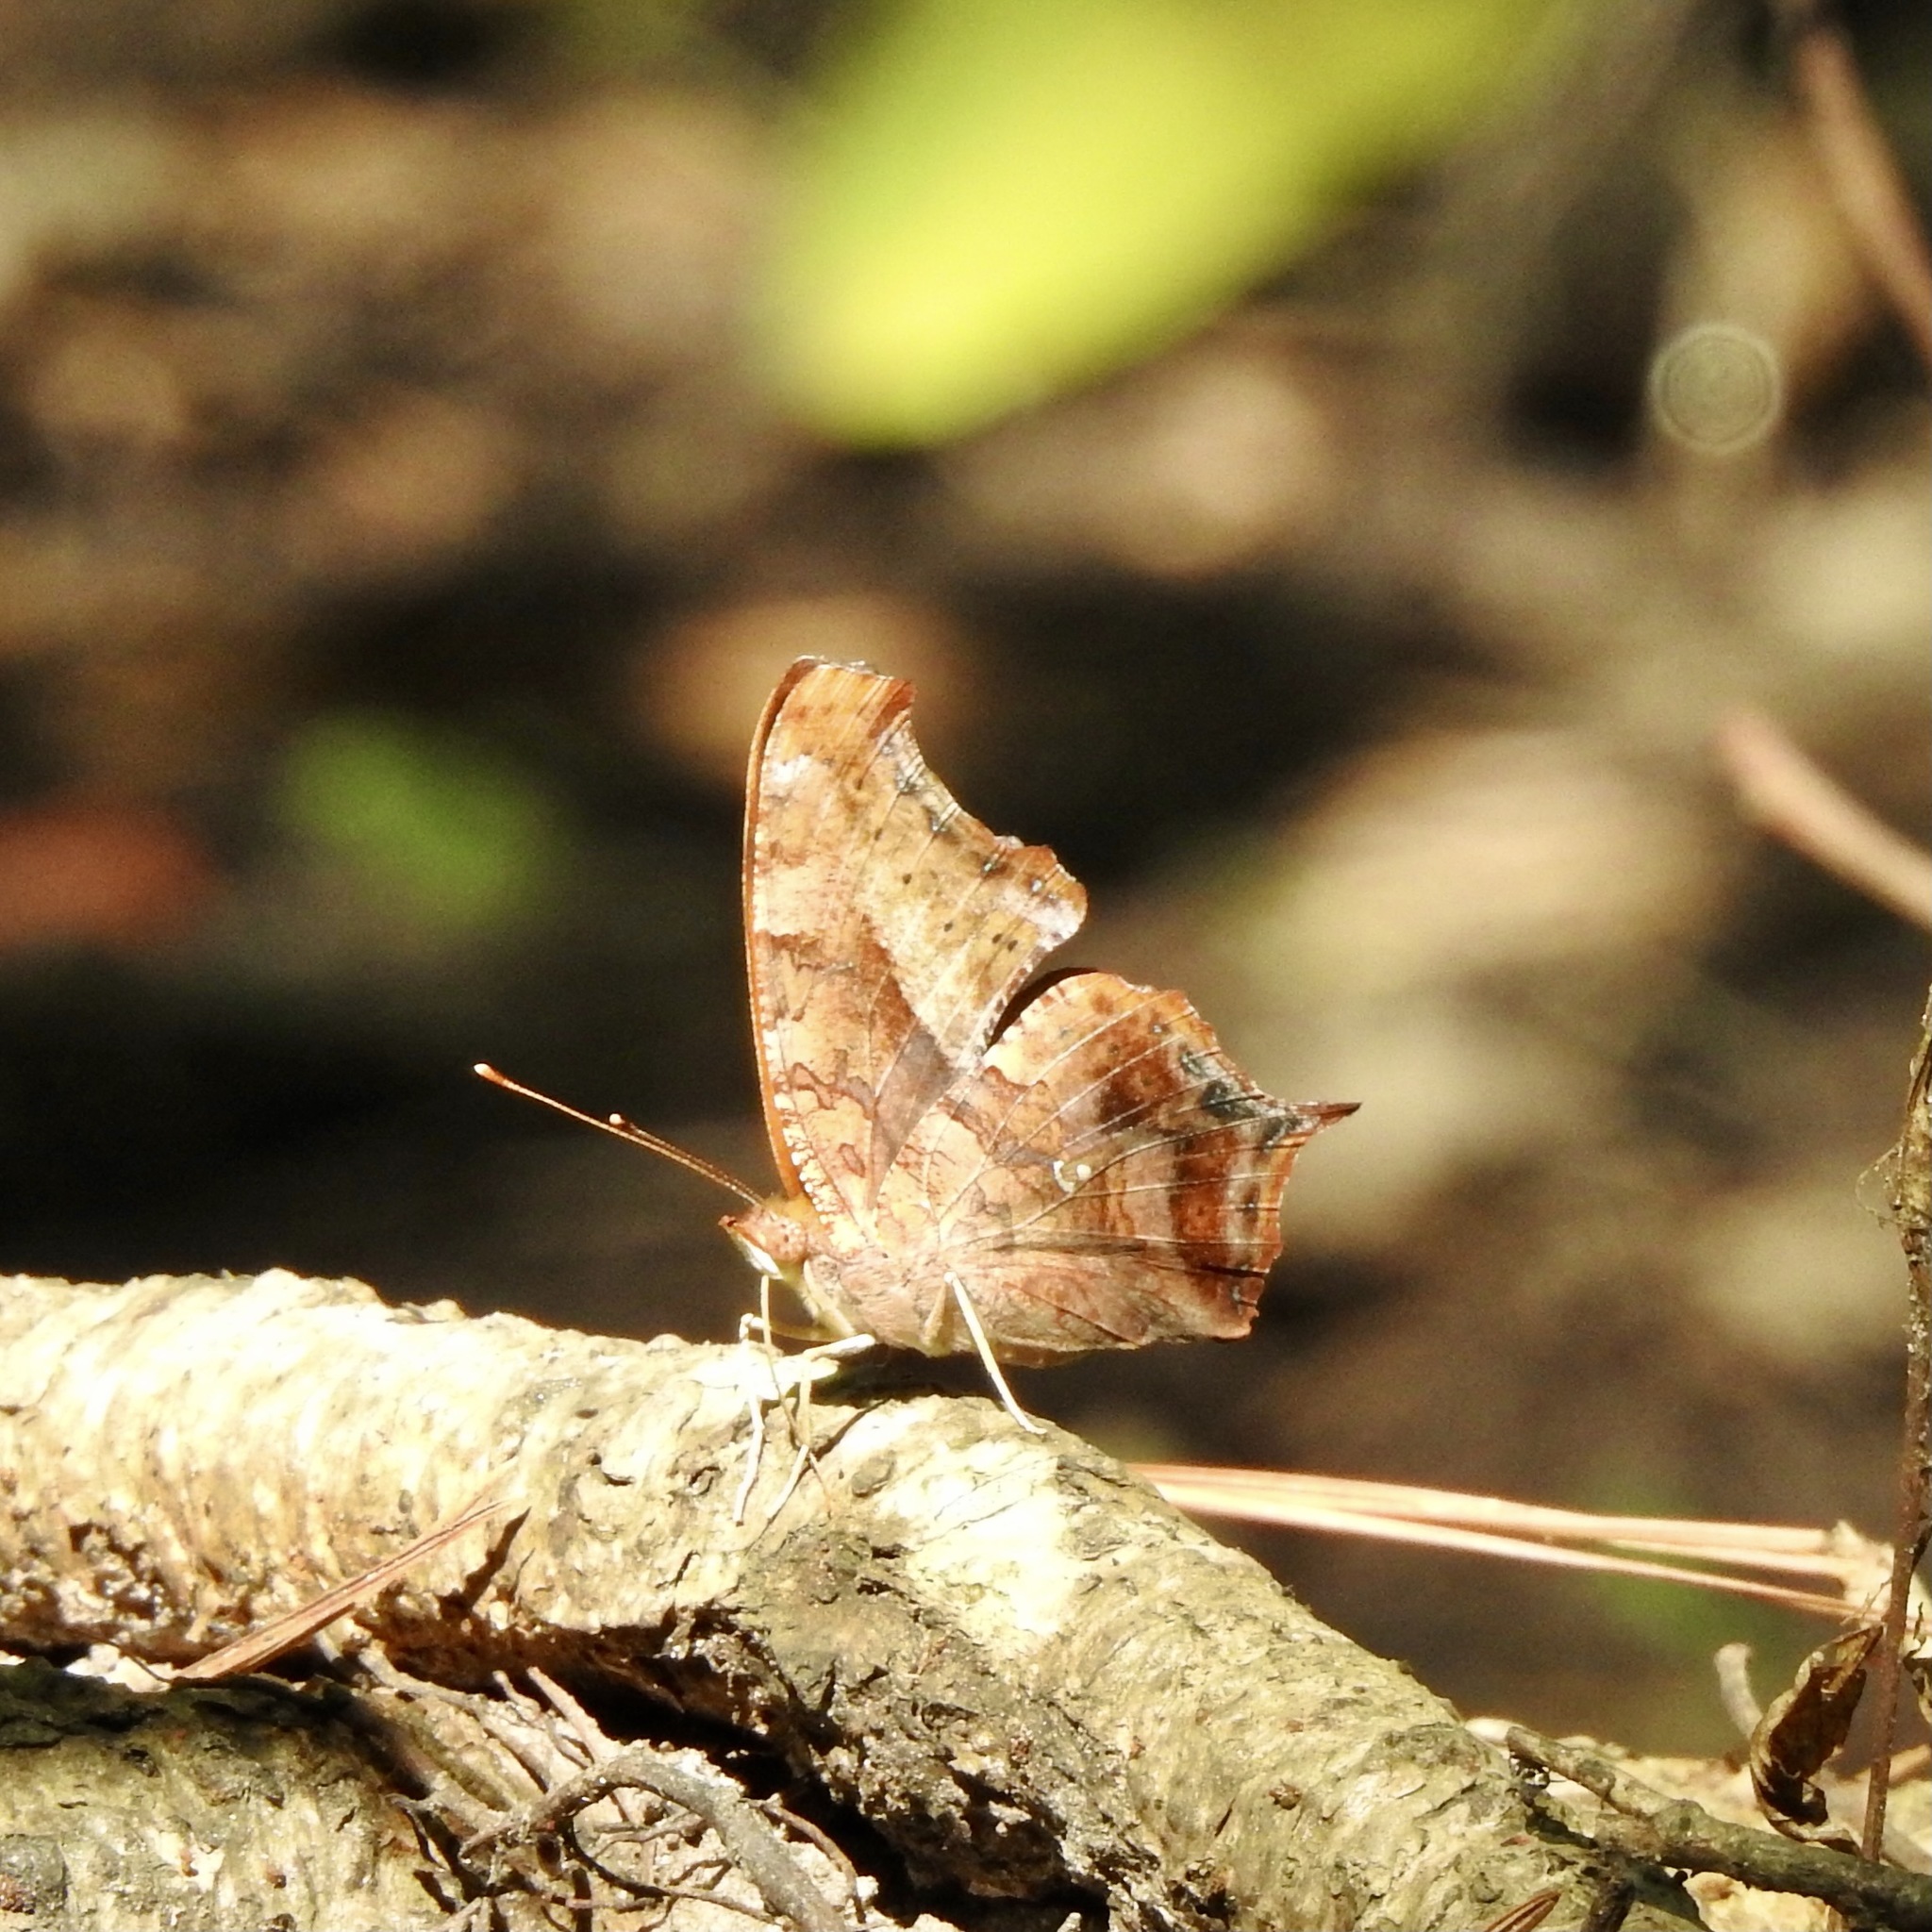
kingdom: Animalia
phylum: Arthropoda
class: Insecta
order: Lepidoptera
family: Nymphalidae
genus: Polygonia
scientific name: Polygonia interrogationis
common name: Question mark
